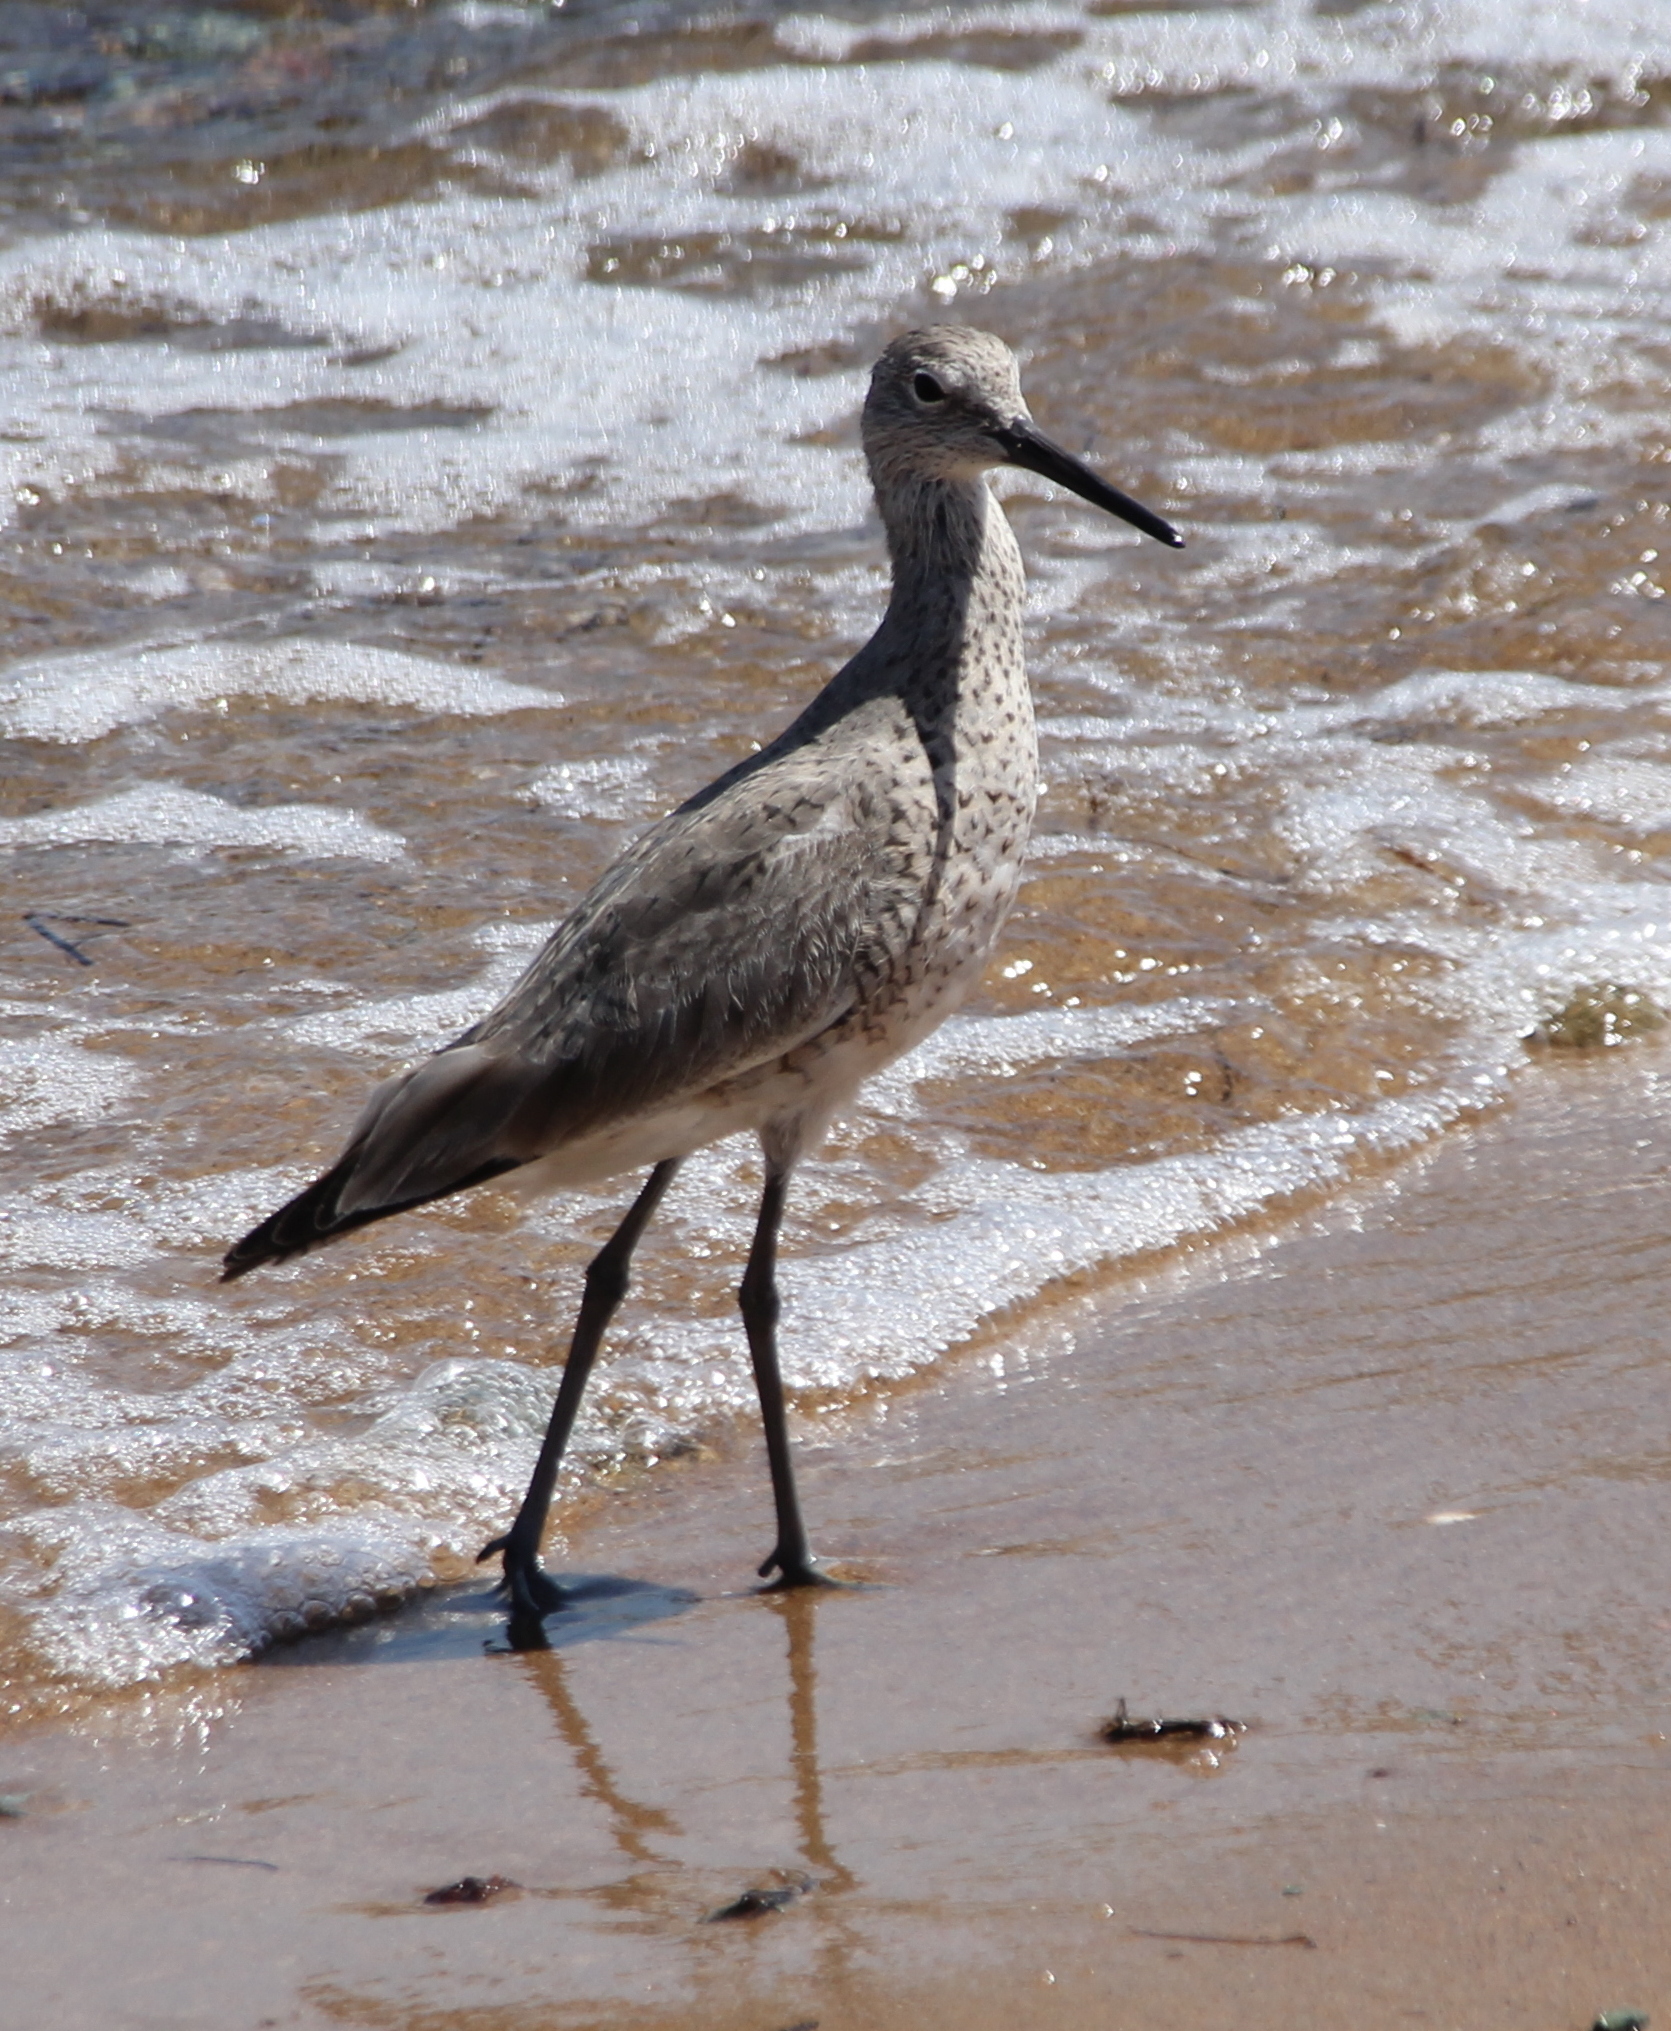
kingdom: Animalia
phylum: Chordata
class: Aves
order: Charadriiformes
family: Scolopacidae
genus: Tringa
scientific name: Tringa semipalmata
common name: Willet
